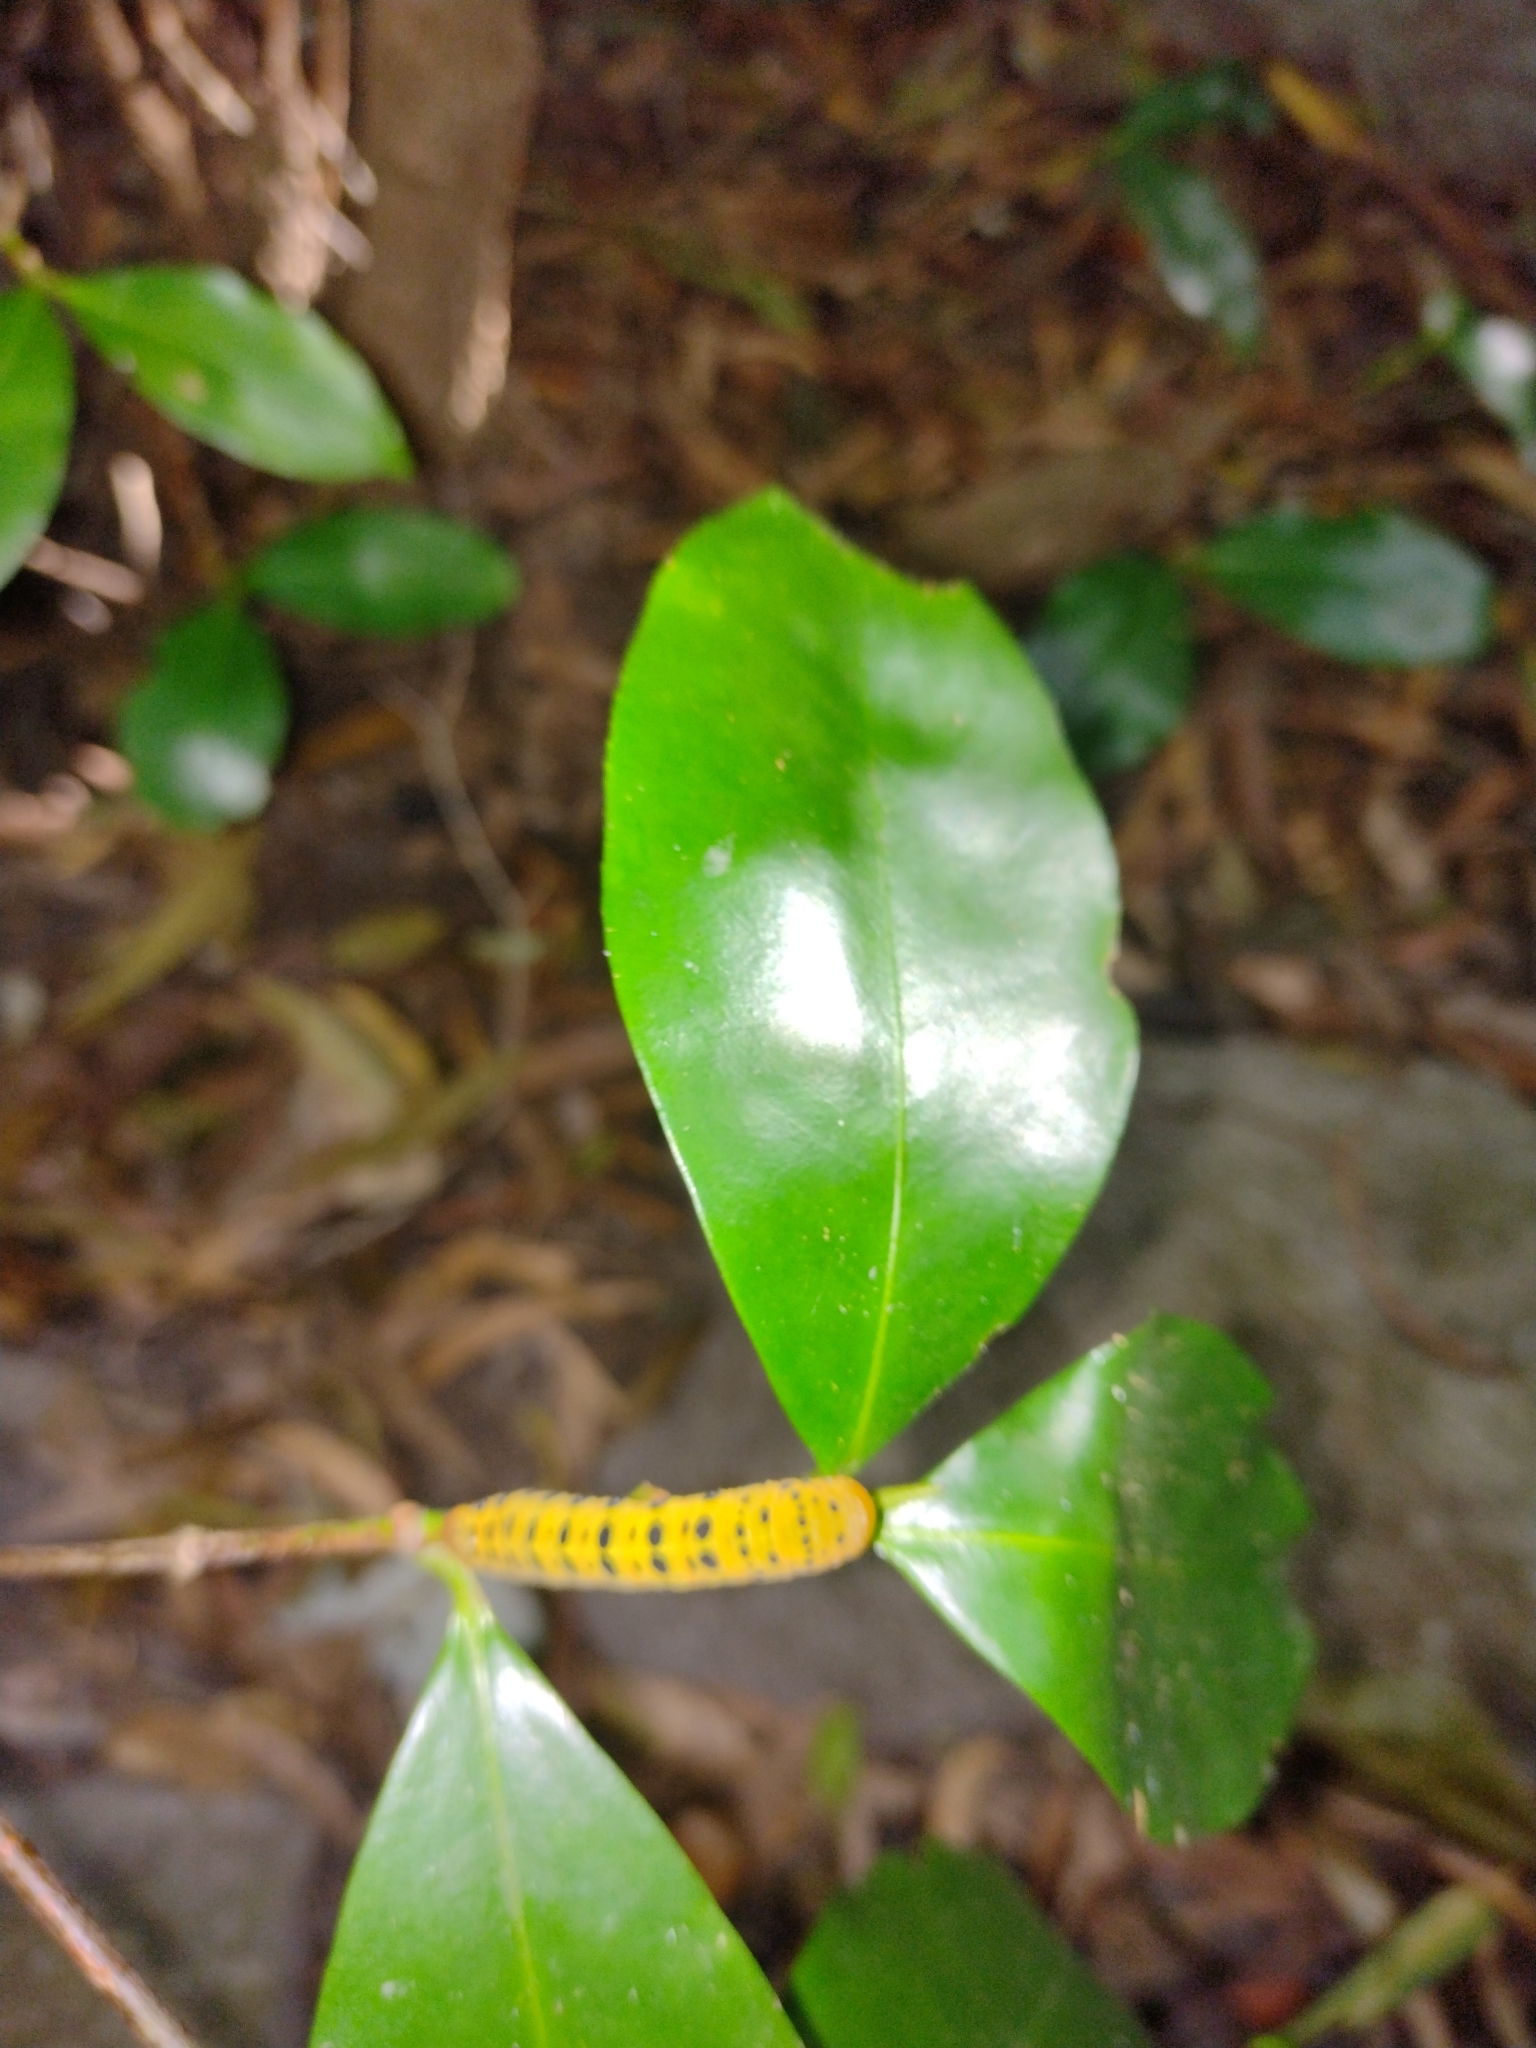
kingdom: Animalia
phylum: Arthropoda
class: Insecta
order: Lepidoptera
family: Geometridae
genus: Dysphania
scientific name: Dysphania numana
